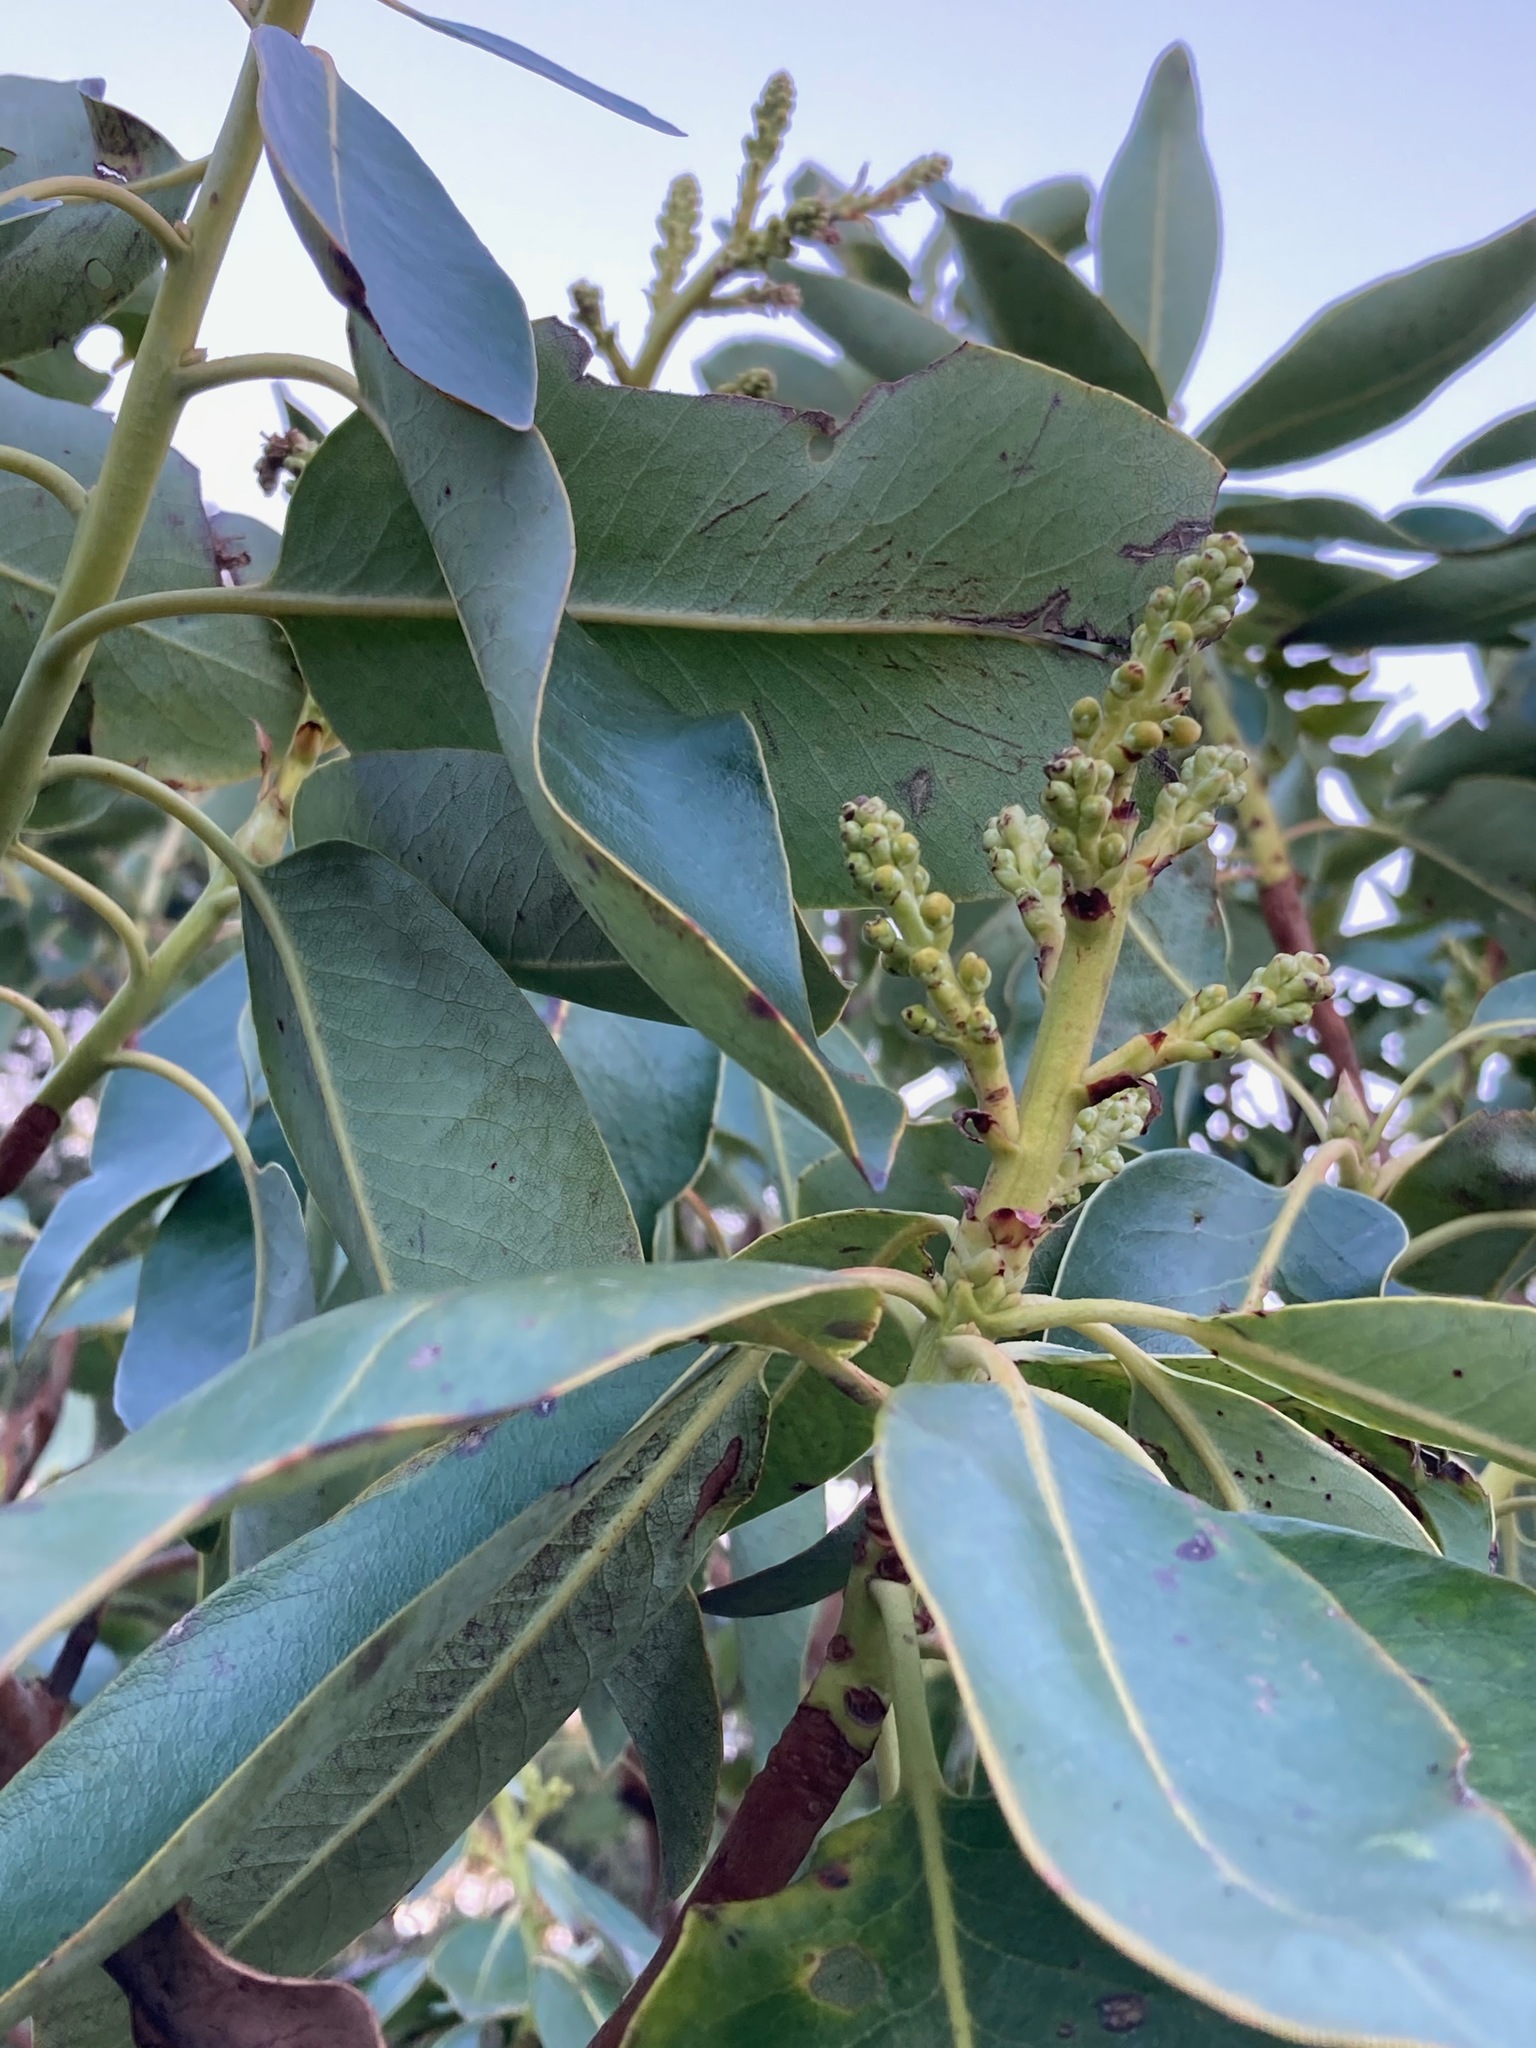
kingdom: Plantae
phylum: Tracheophyta
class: Magnoliopsida
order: Ericales
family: Ericaceae
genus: Arbutus
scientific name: Arbutus menziesii
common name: Pacific madrone
